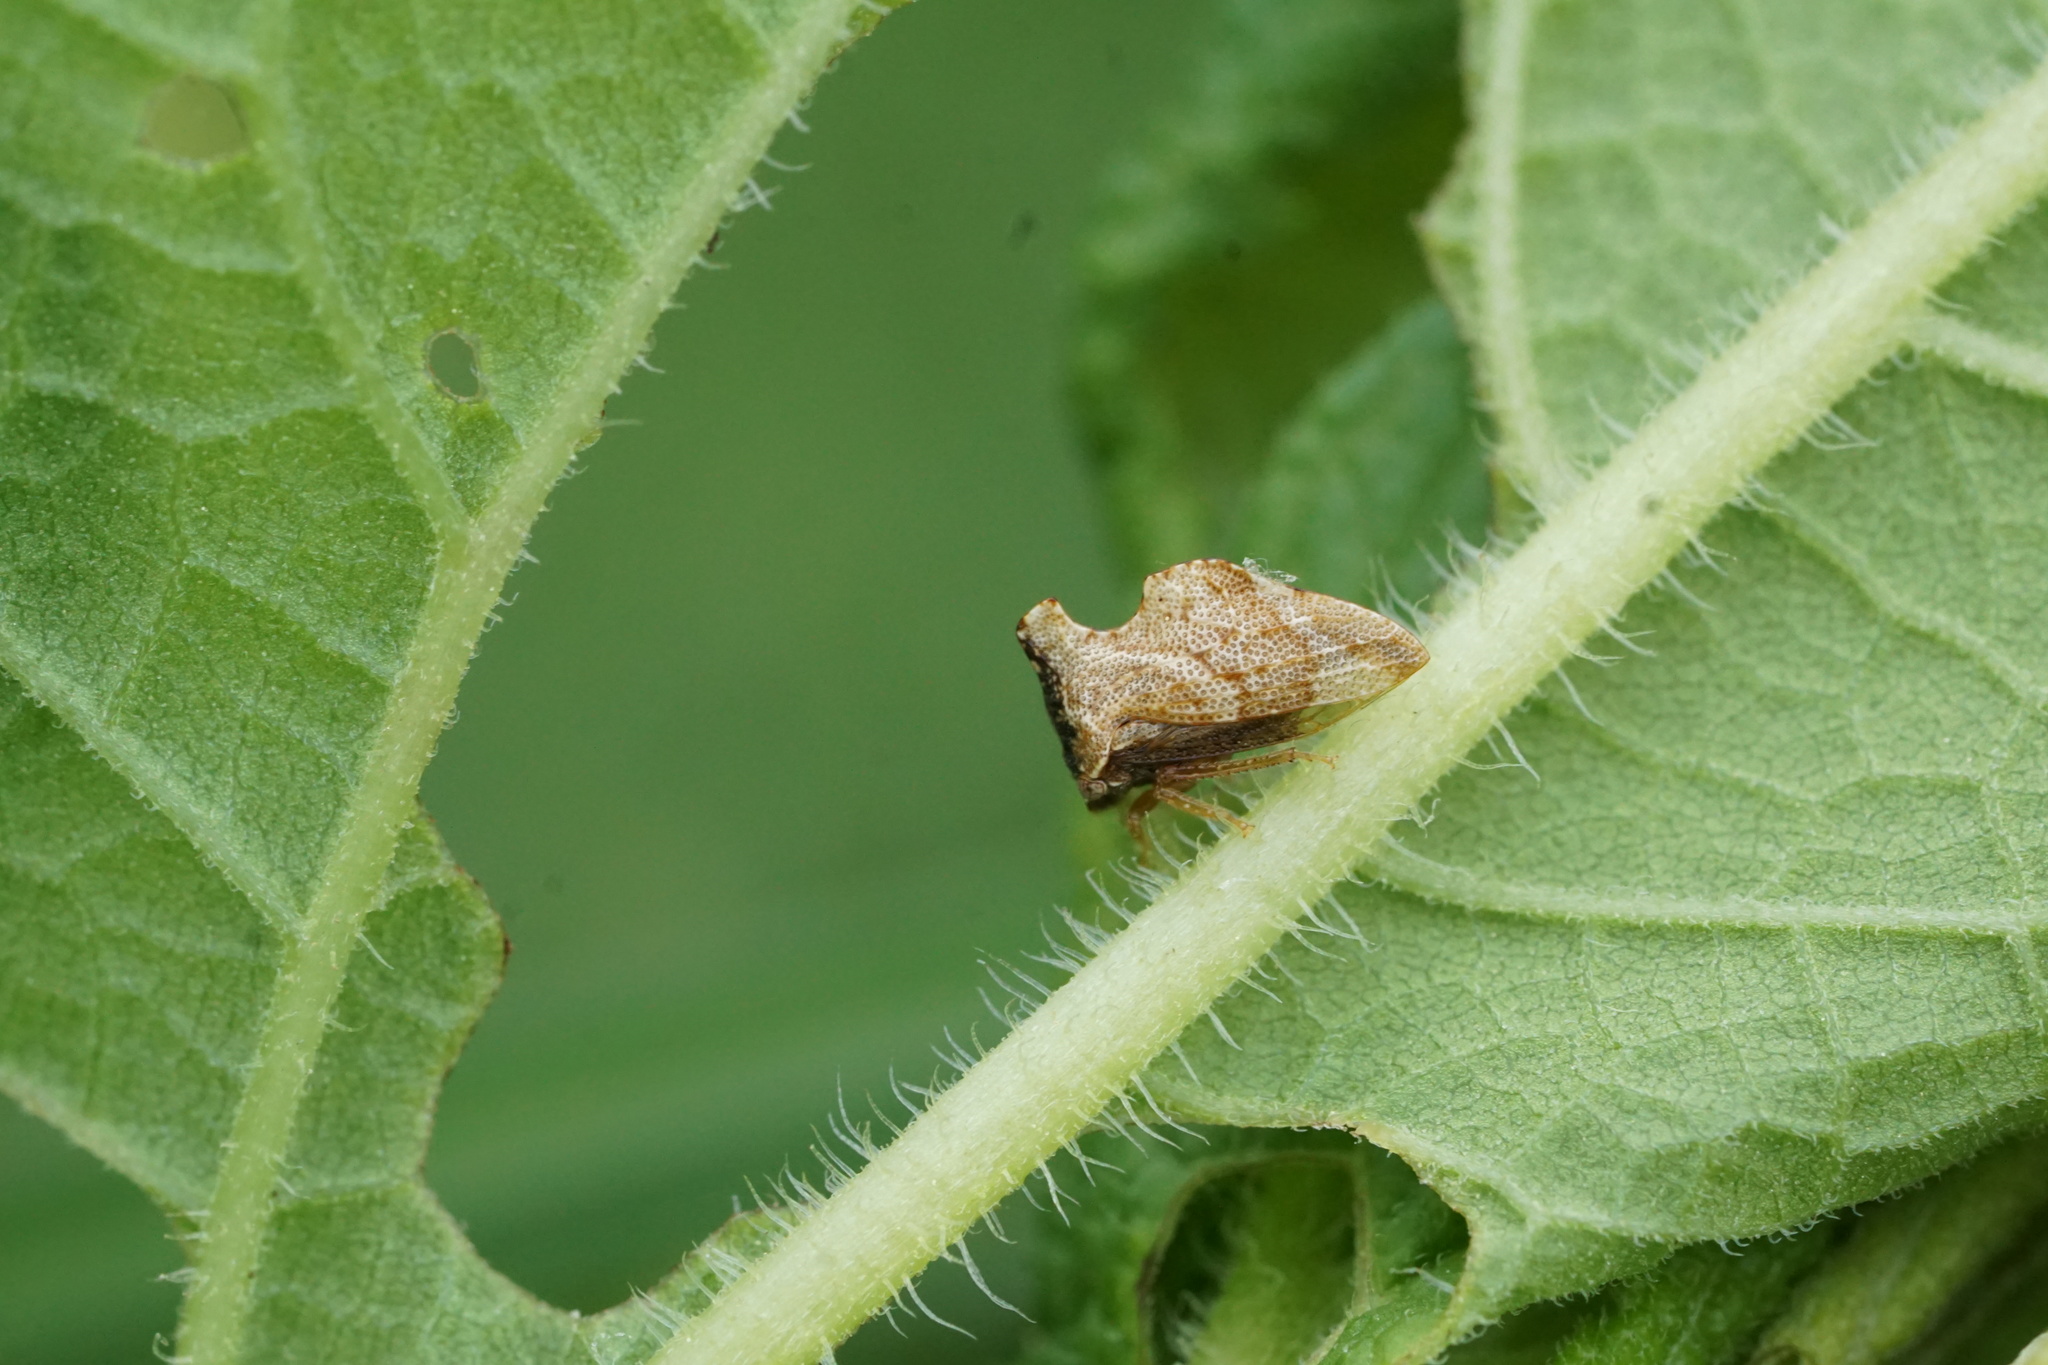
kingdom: Animalia
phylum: Arthropoda
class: Insecta
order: Hemiptera
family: Membracidae
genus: Entylia
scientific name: Entylia carinata
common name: Keeled treehopper
